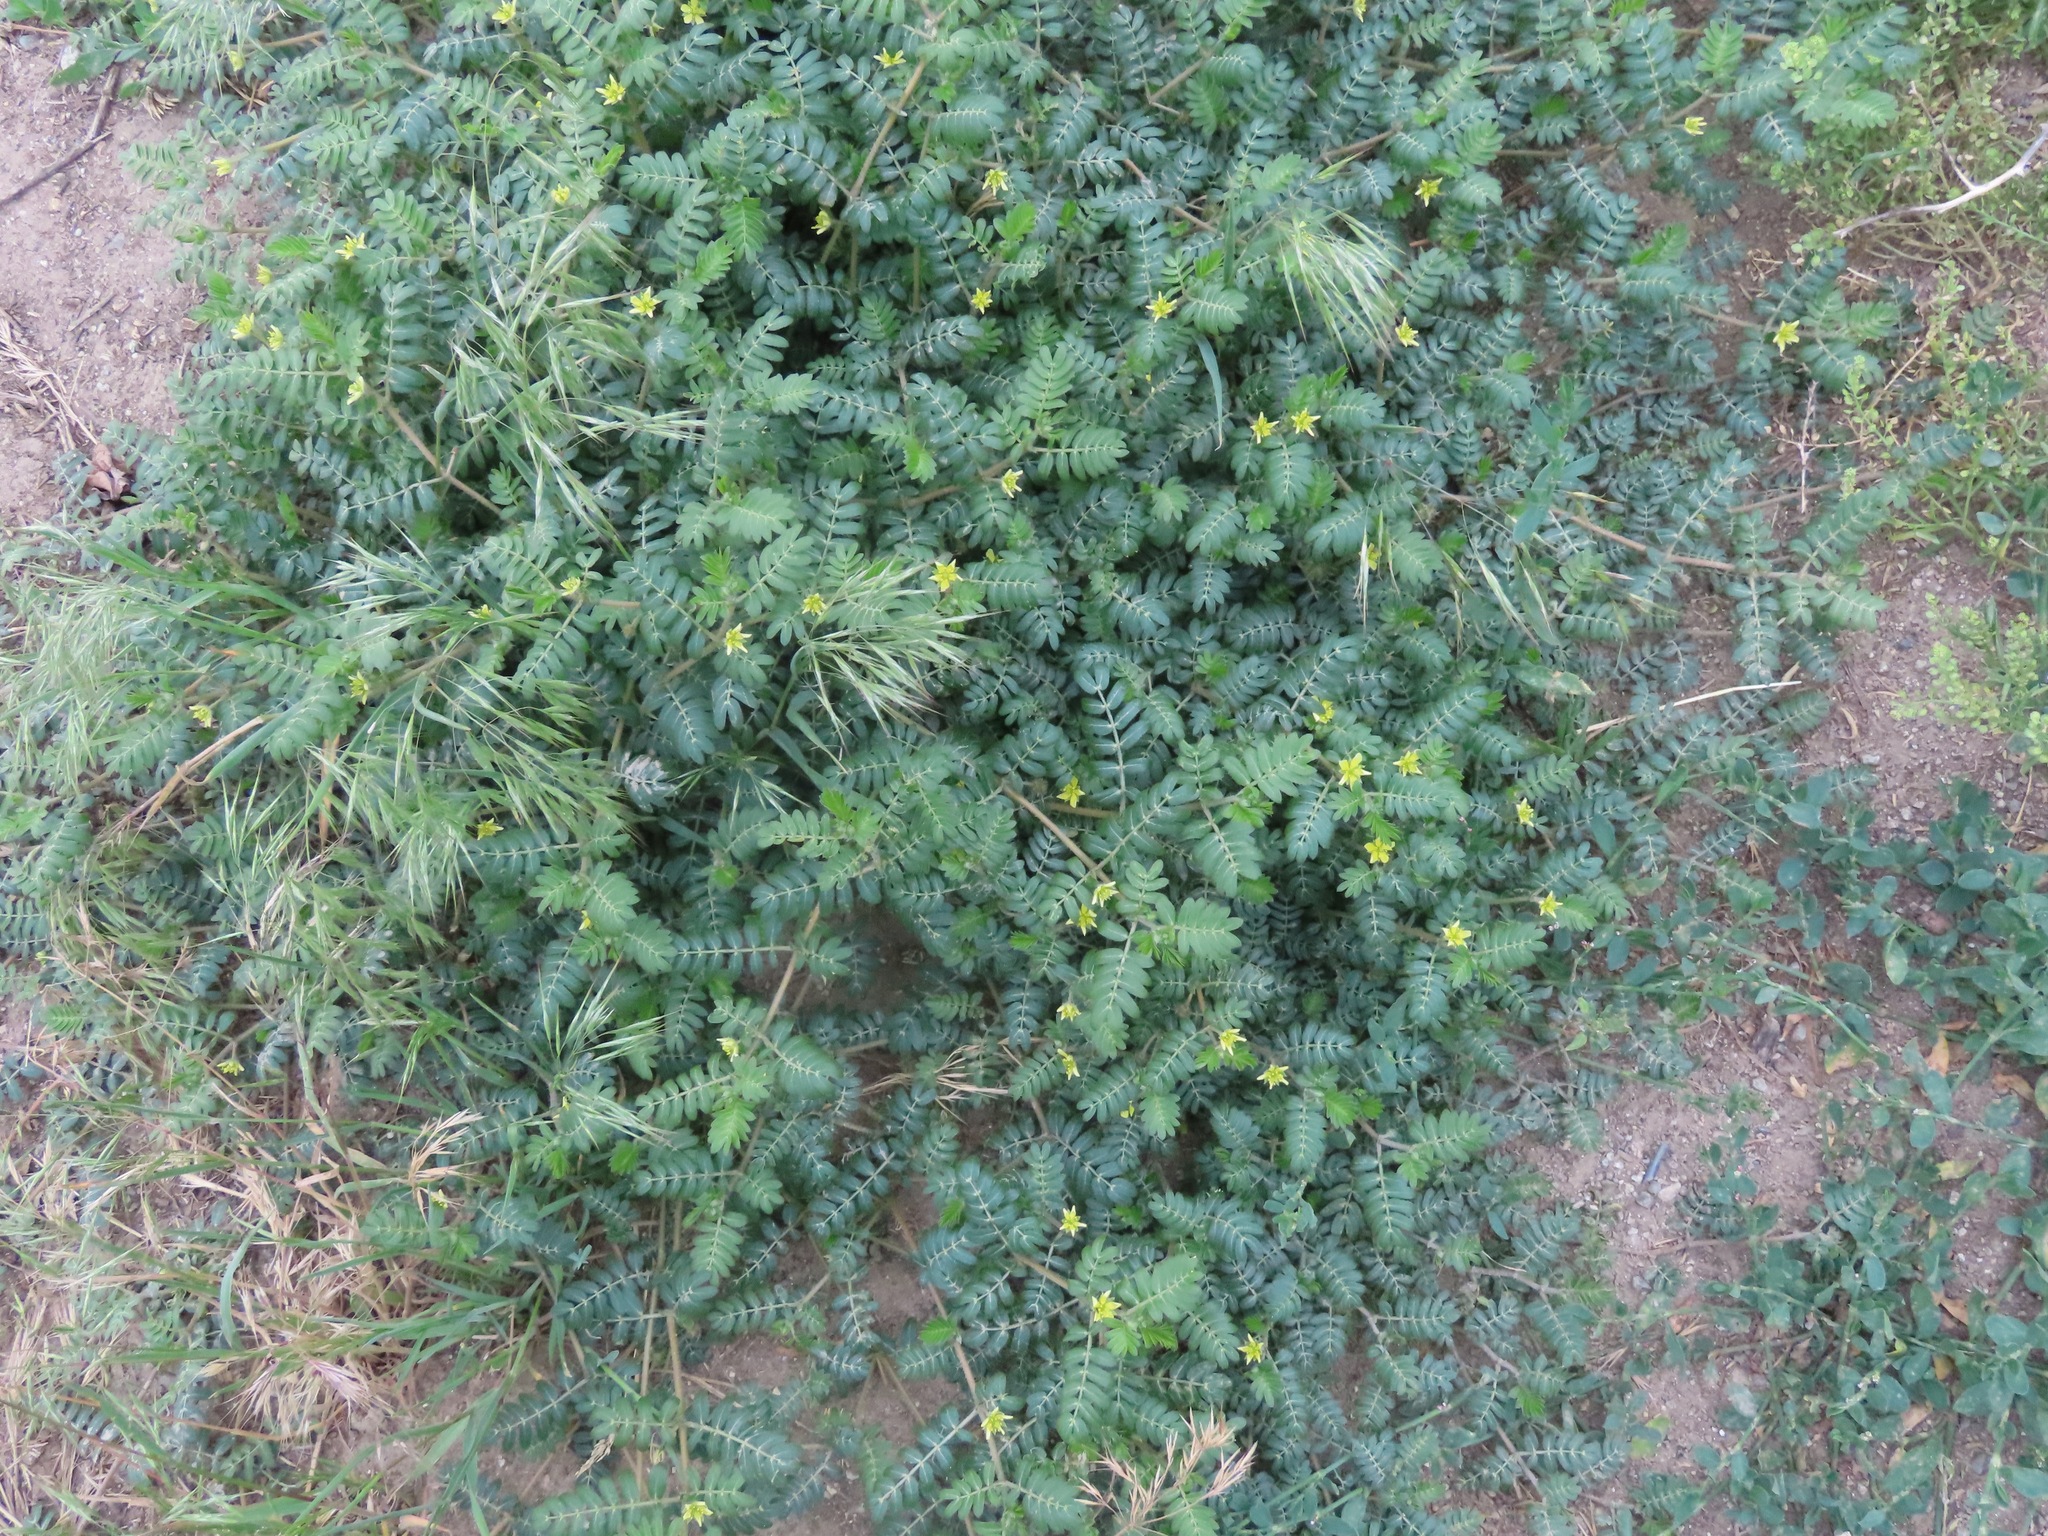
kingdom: Plantae
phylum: Tracheophyta
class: Magnoliopsida
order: Zygophyllales
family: Zygophyllaceae
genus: Tribulus
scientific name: Tribulus terrestris
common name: Puncturevine
